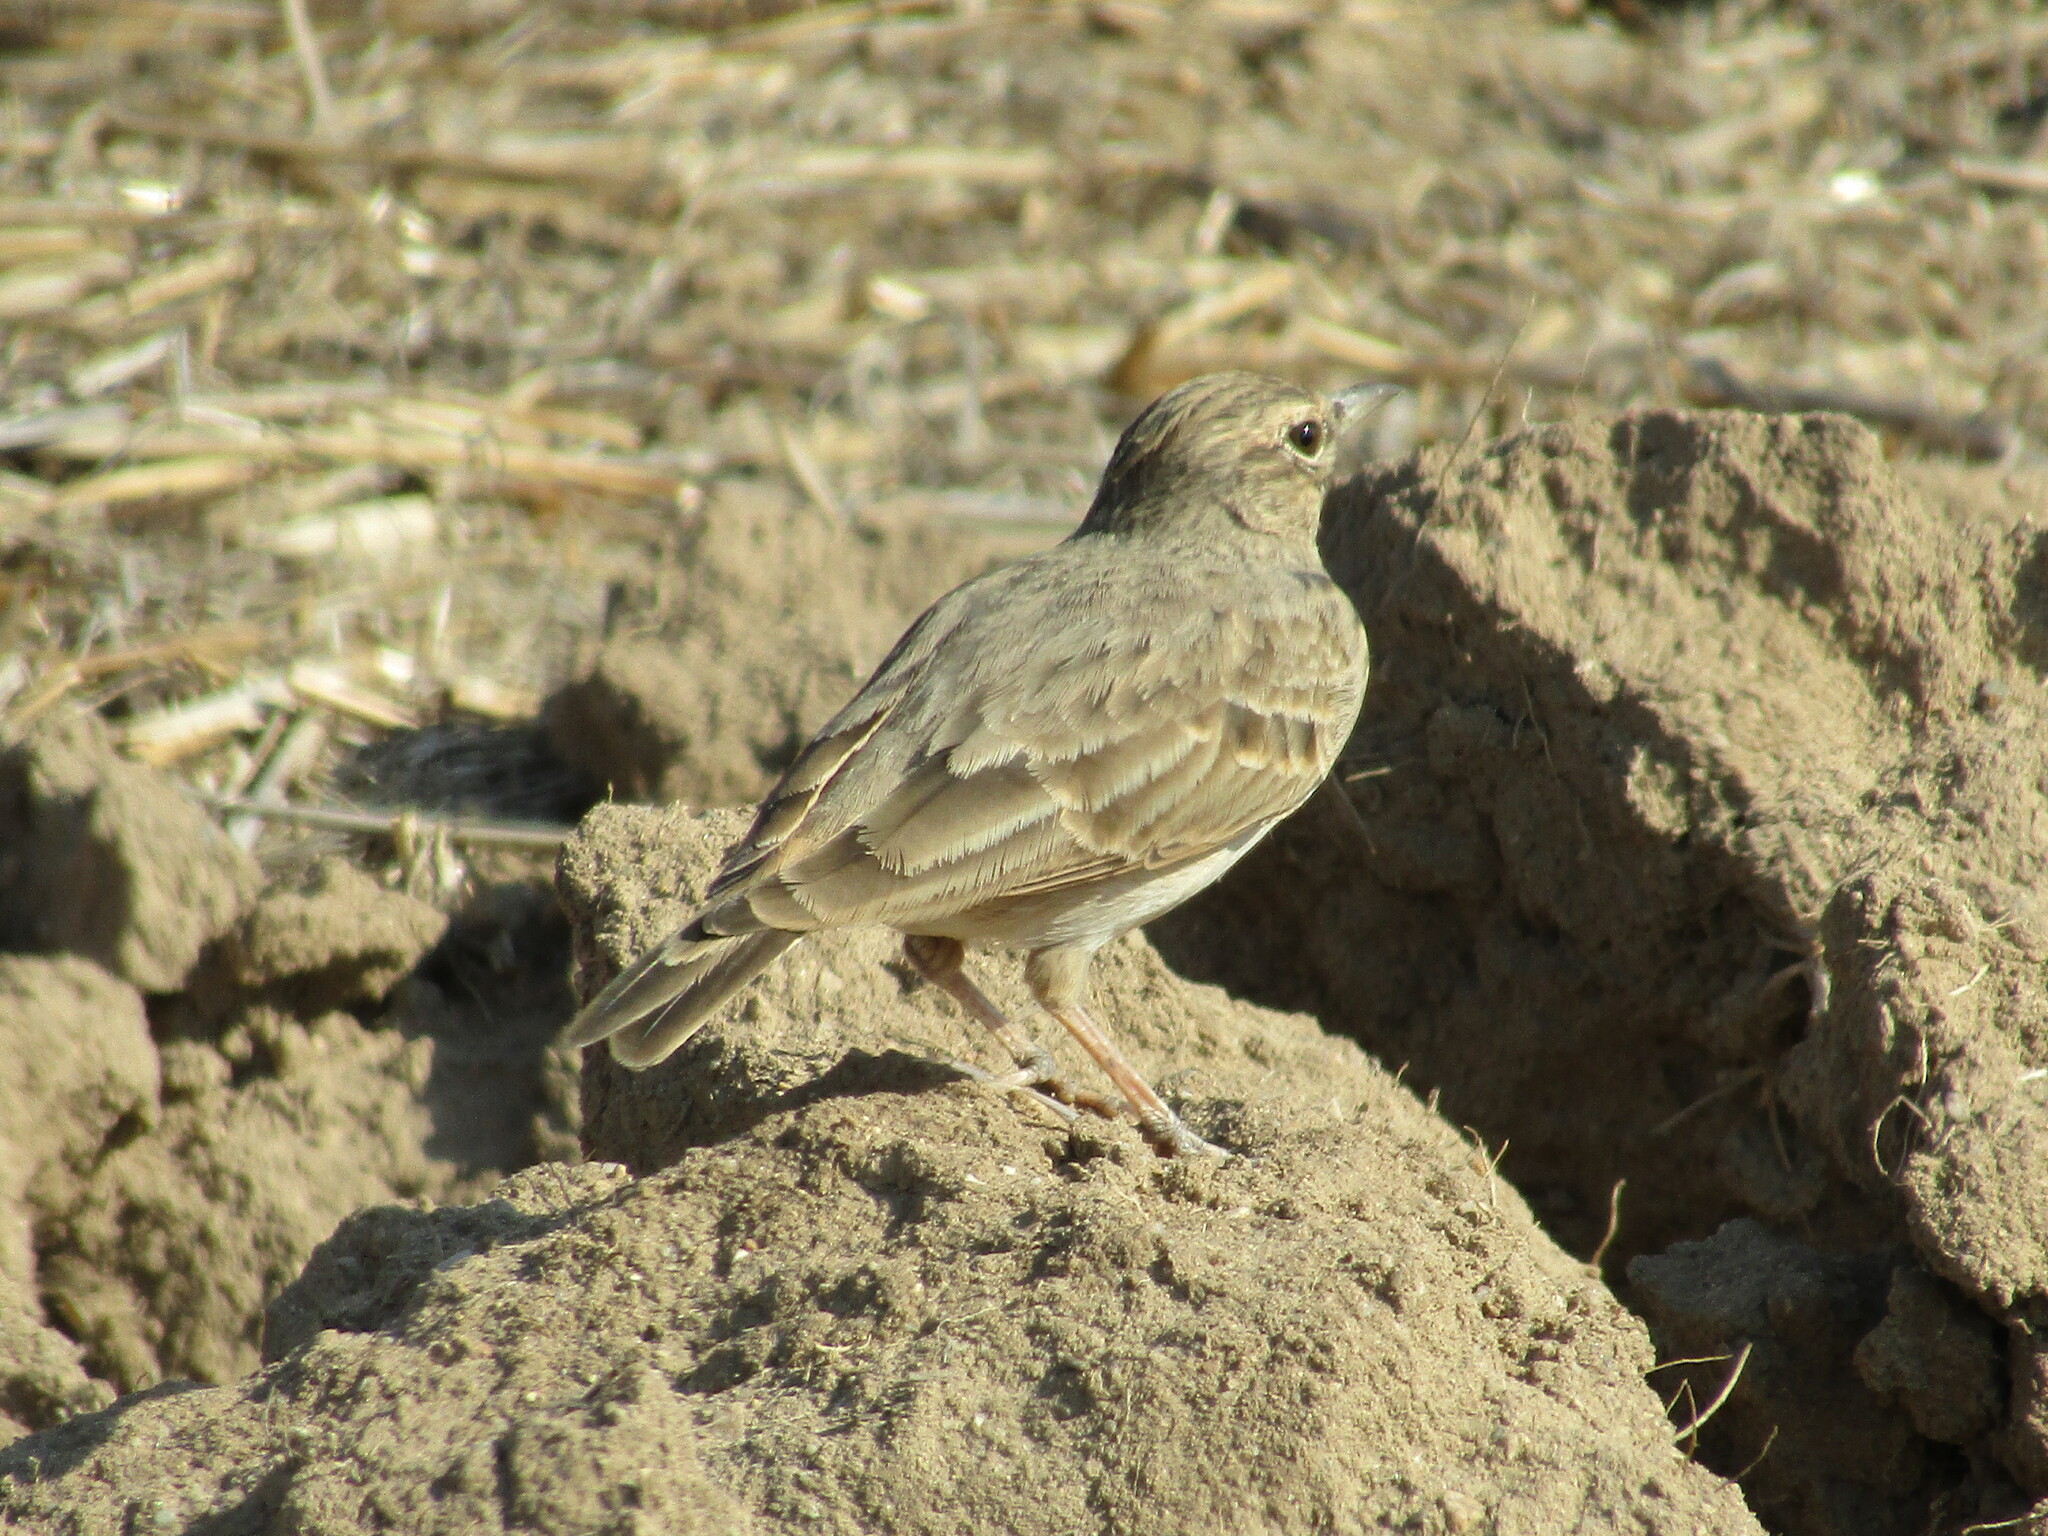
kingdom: Animalia
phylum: Chordata
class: Aves
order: Passeriformes
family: Alaudidae
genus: Galerida
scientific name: Galerida cristata
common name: Crested lark
